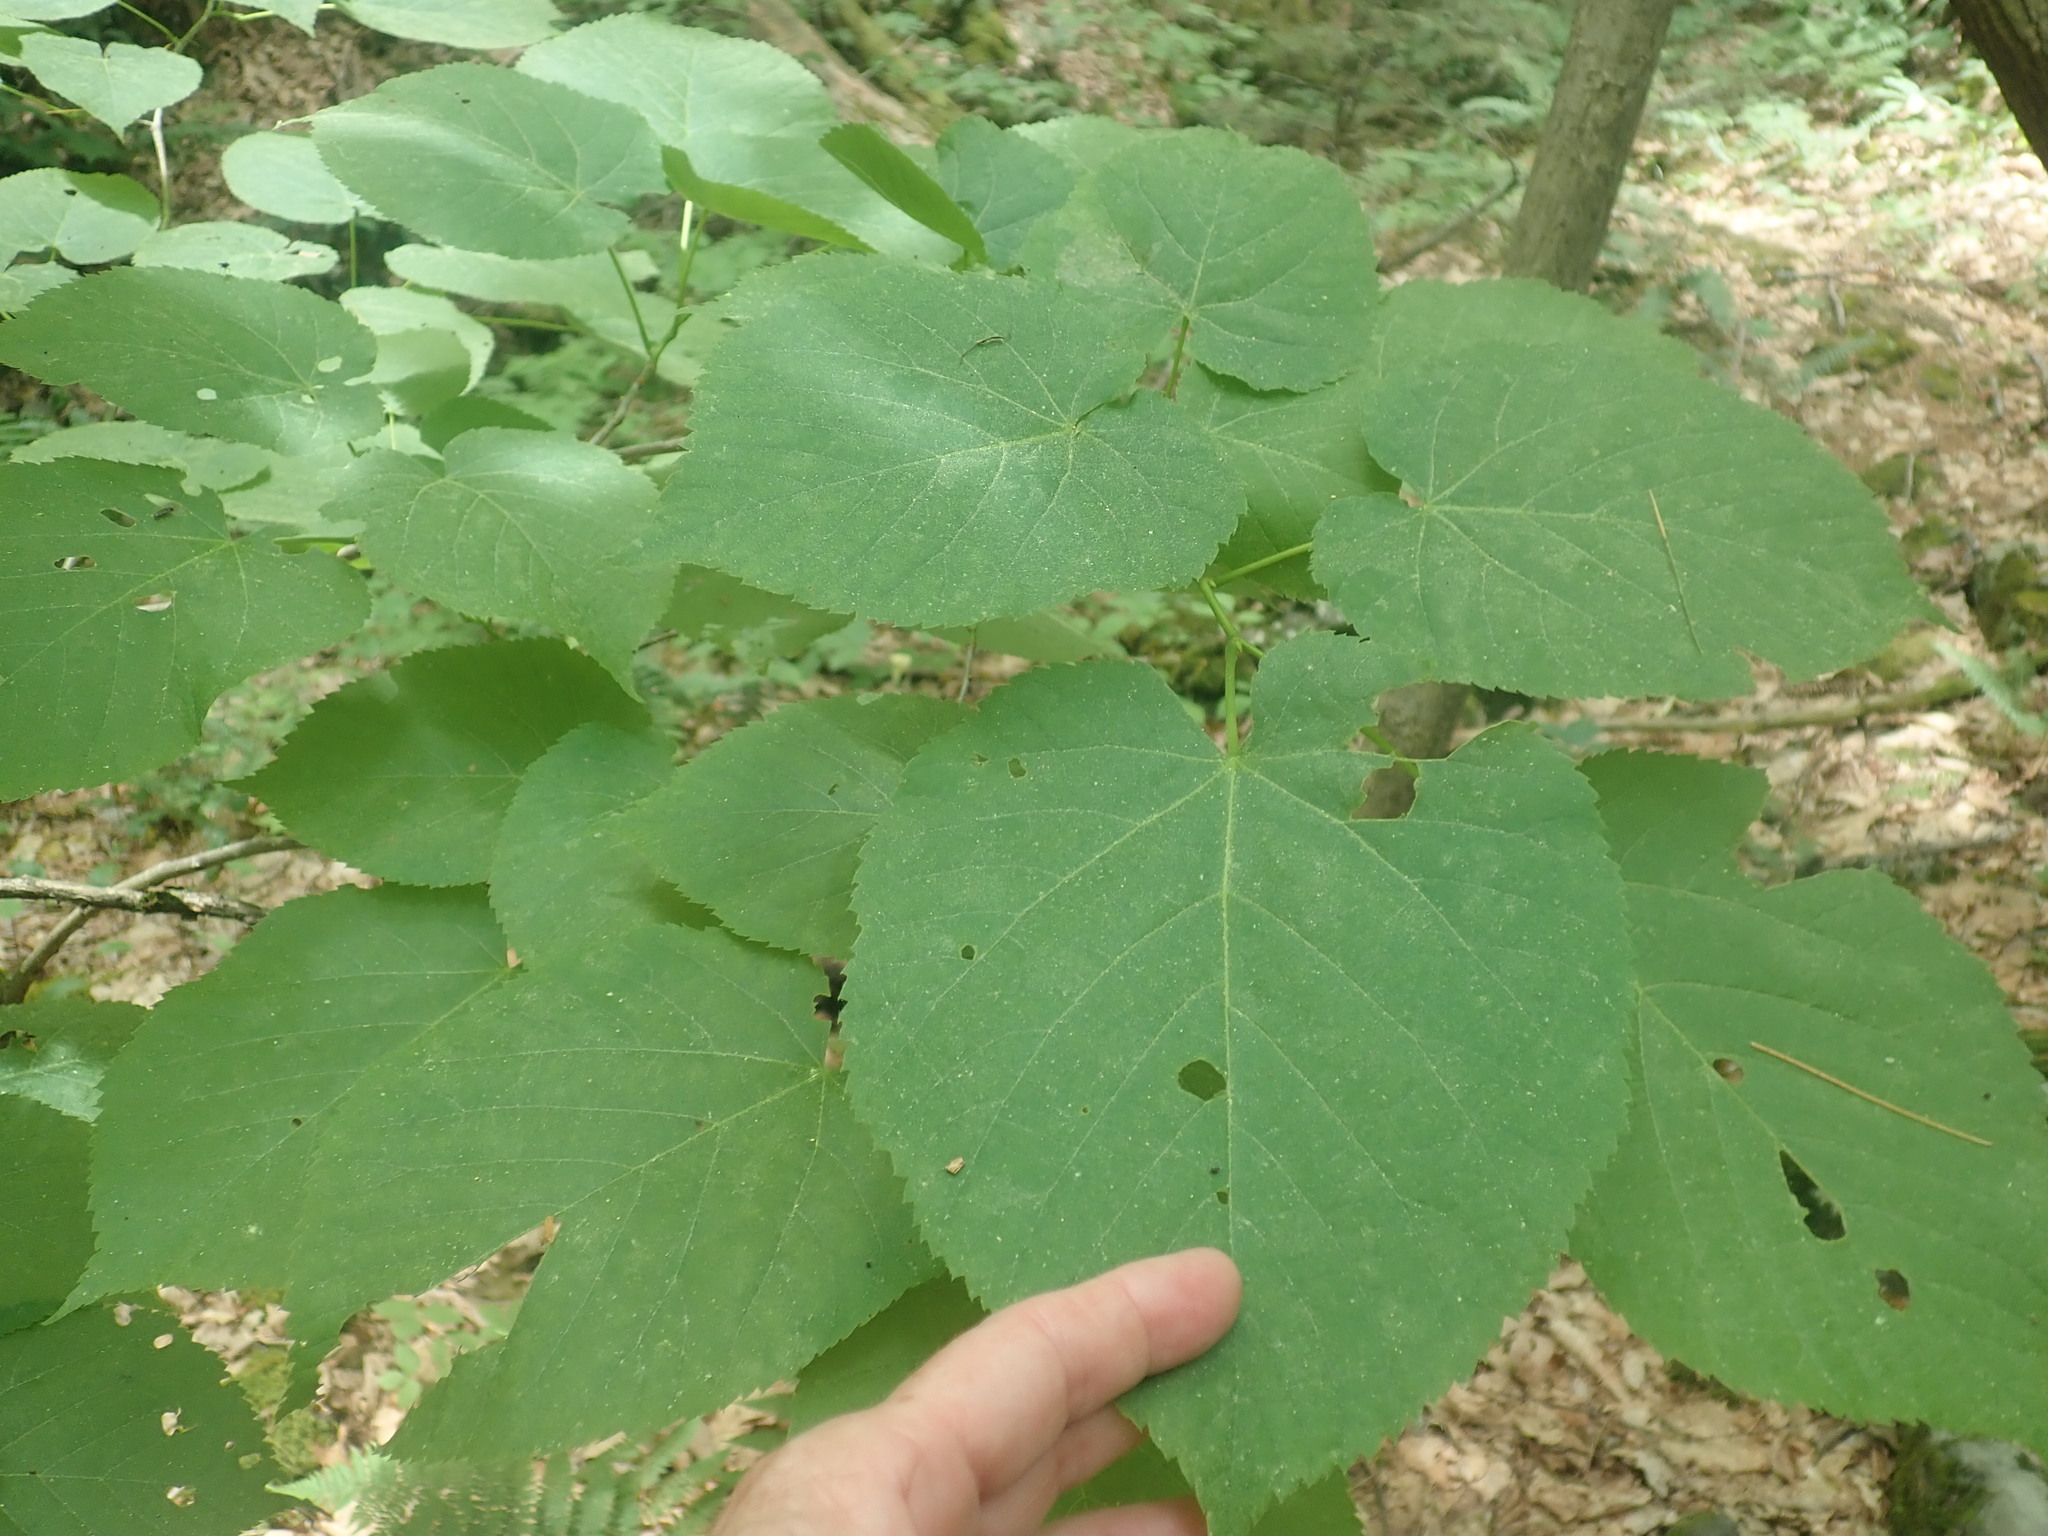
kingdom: Plantae
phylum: Tracheophyta
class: Magnoliopsida
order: Malvales
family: Malvaceae
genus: Tilia
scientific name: Tilia americana
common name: Basswood
